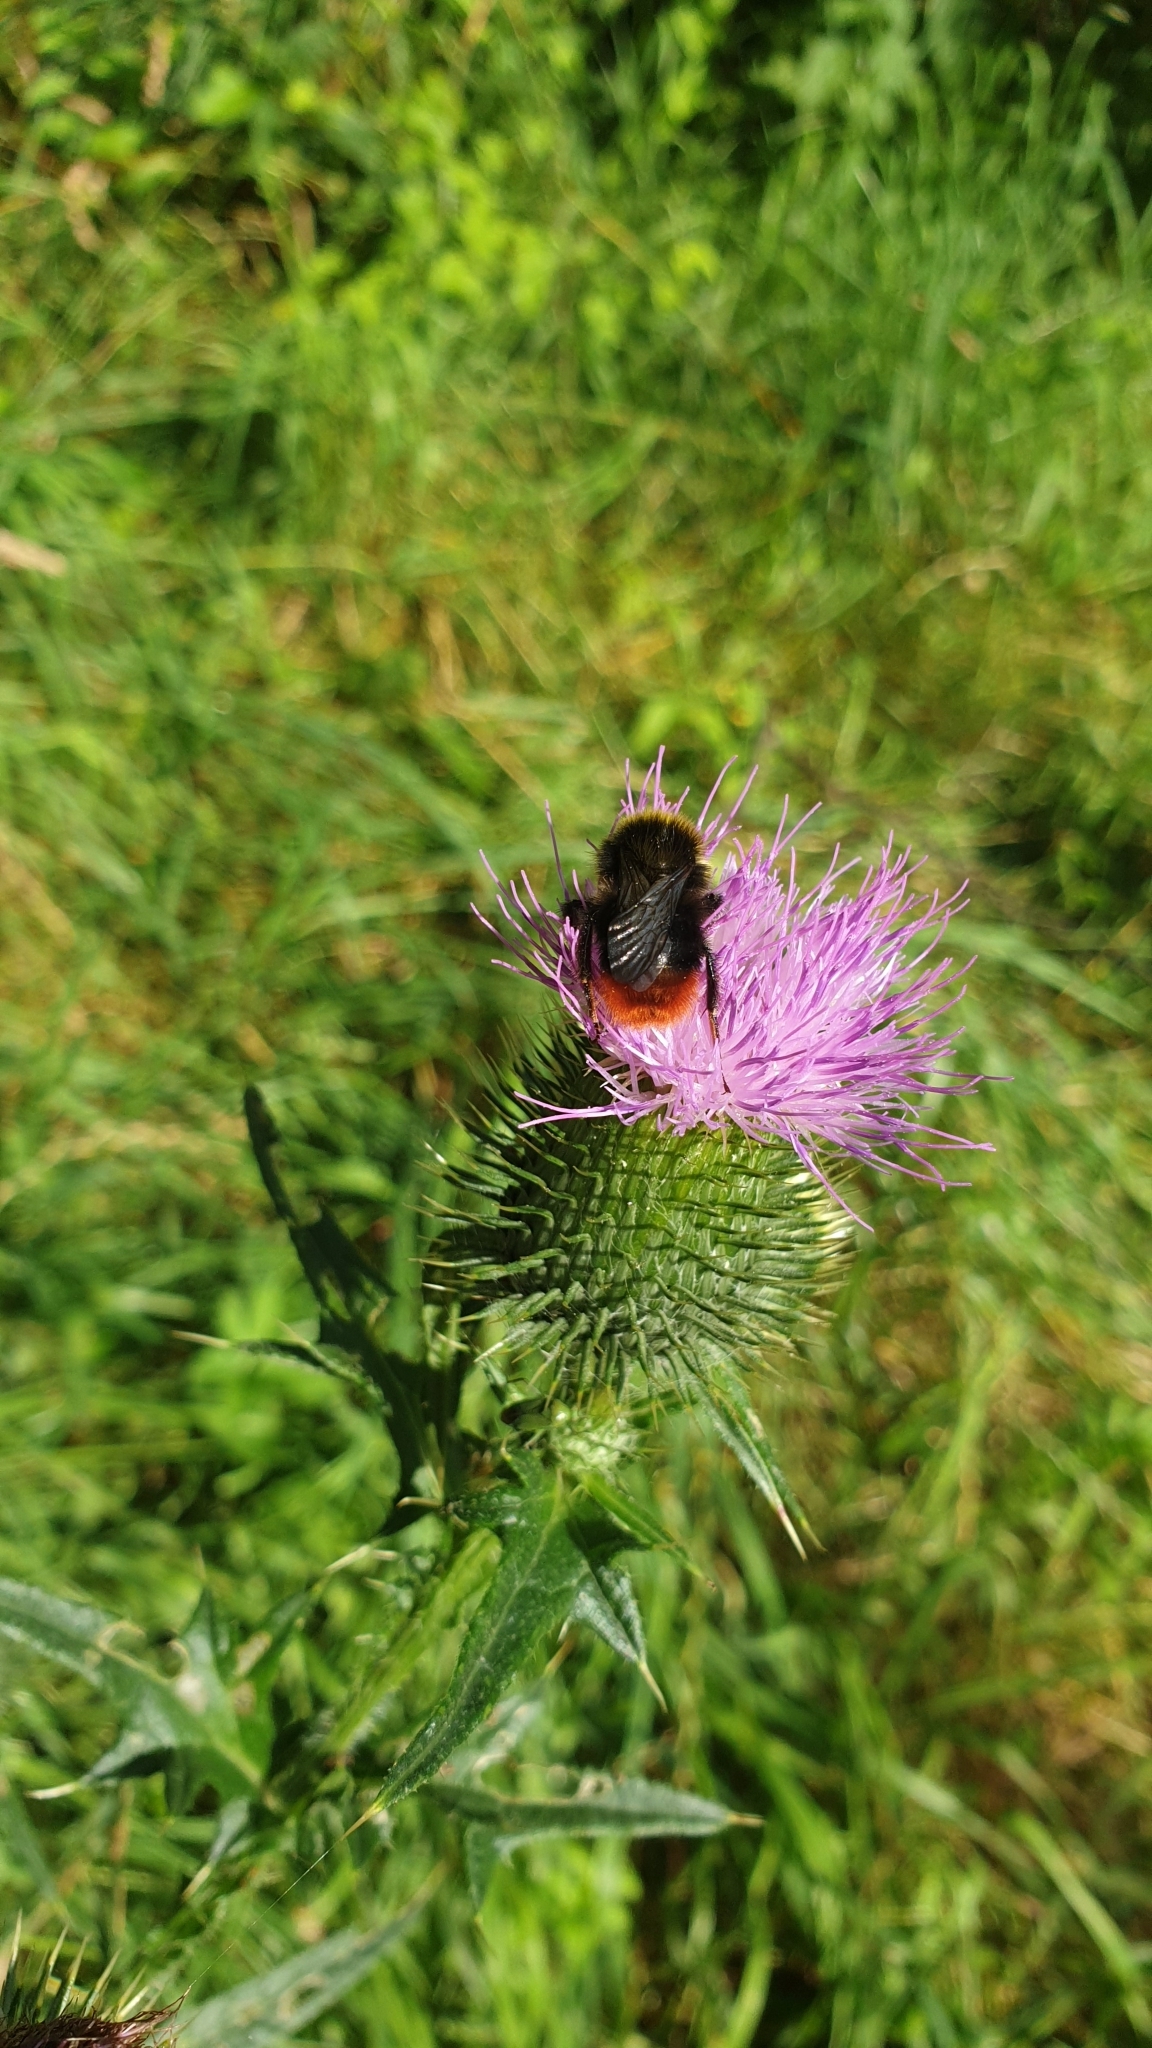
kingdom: Animalia
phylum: Arthropoda
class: Insecta
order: Hymenoptera
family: Apidae
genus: Bombus
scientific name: Bombus lapidarius
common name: Large red-tailed humble-bee
